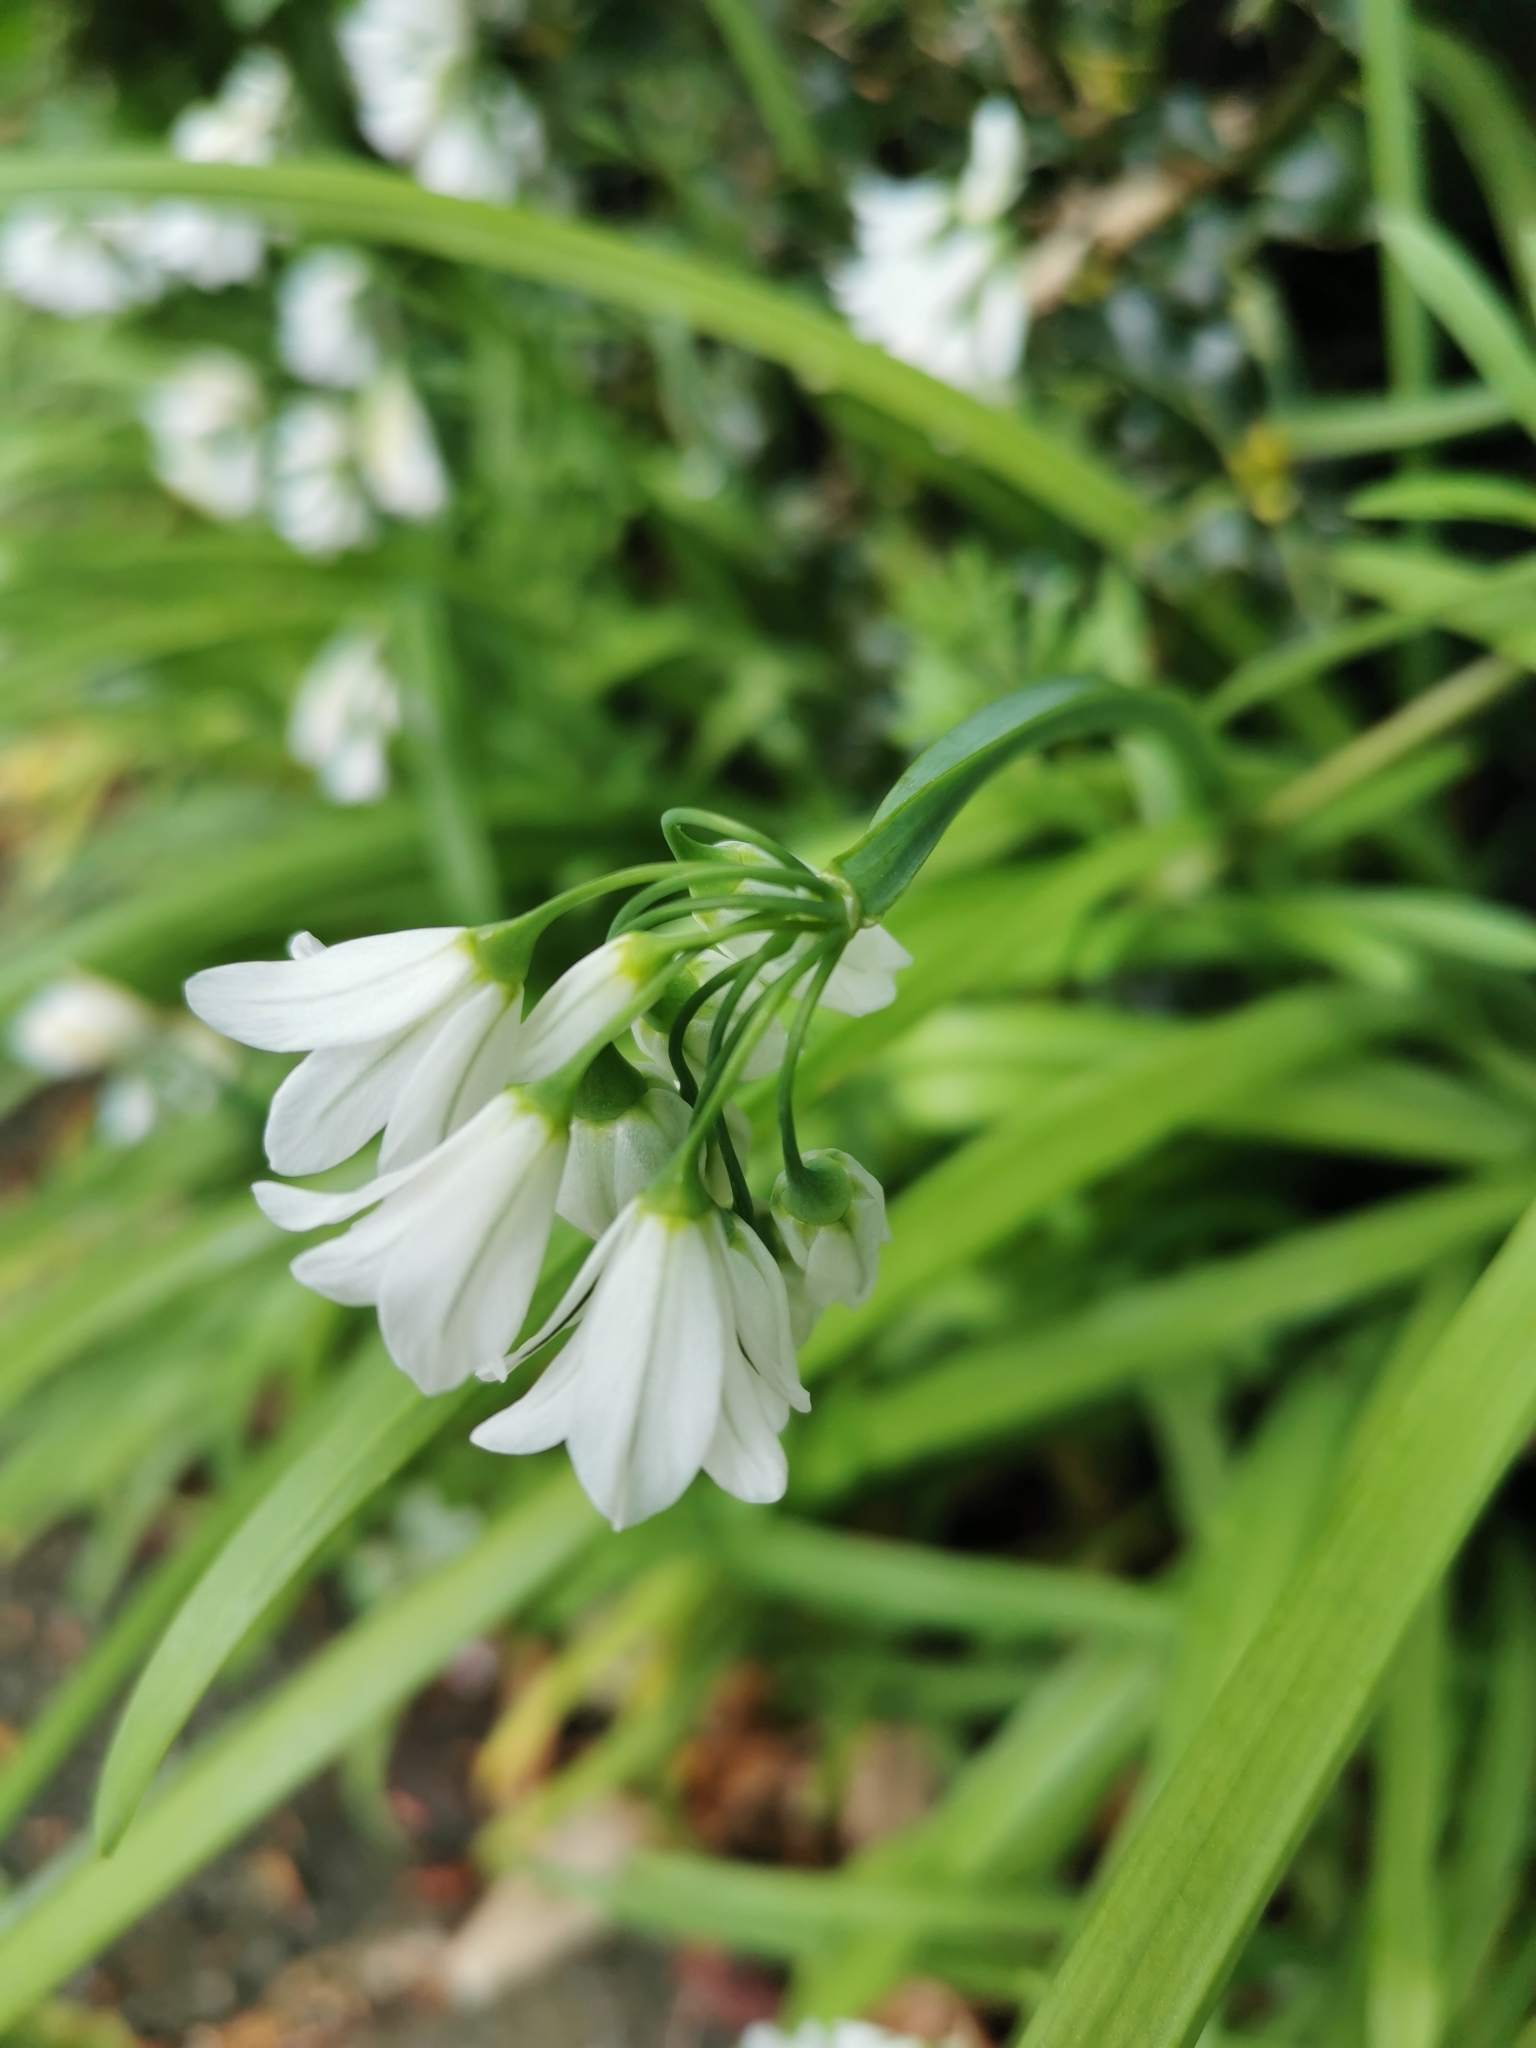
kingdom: Plantae
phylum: Tracheophyta
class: Liliopsida
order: Asparagales
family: Amaryllidaceae
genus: Allium
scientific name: Allium triquetrum
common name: Three-cornered garlic
